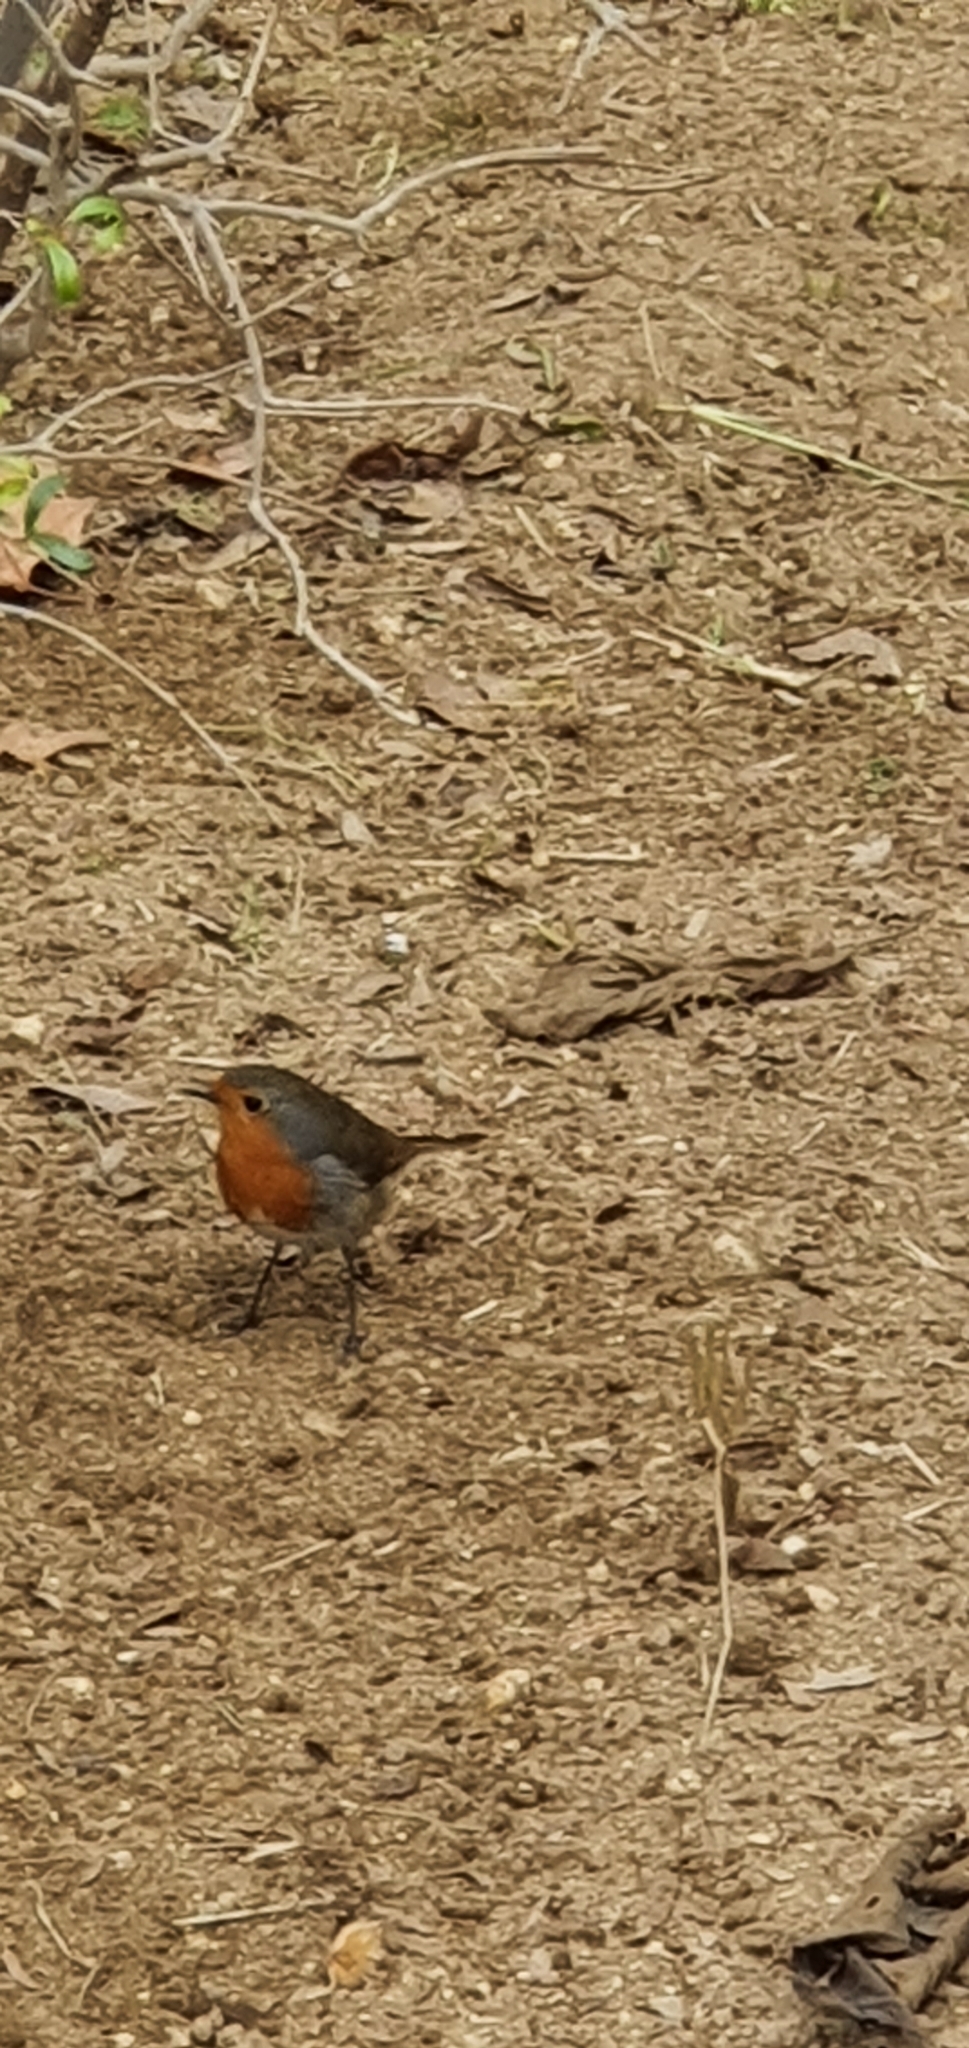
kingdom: Animalia
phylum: Chordata
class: Aves
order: Passeriformes
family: Muscicapidae
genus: Erithacus
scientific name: Erithacus rubecula
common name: European robin
